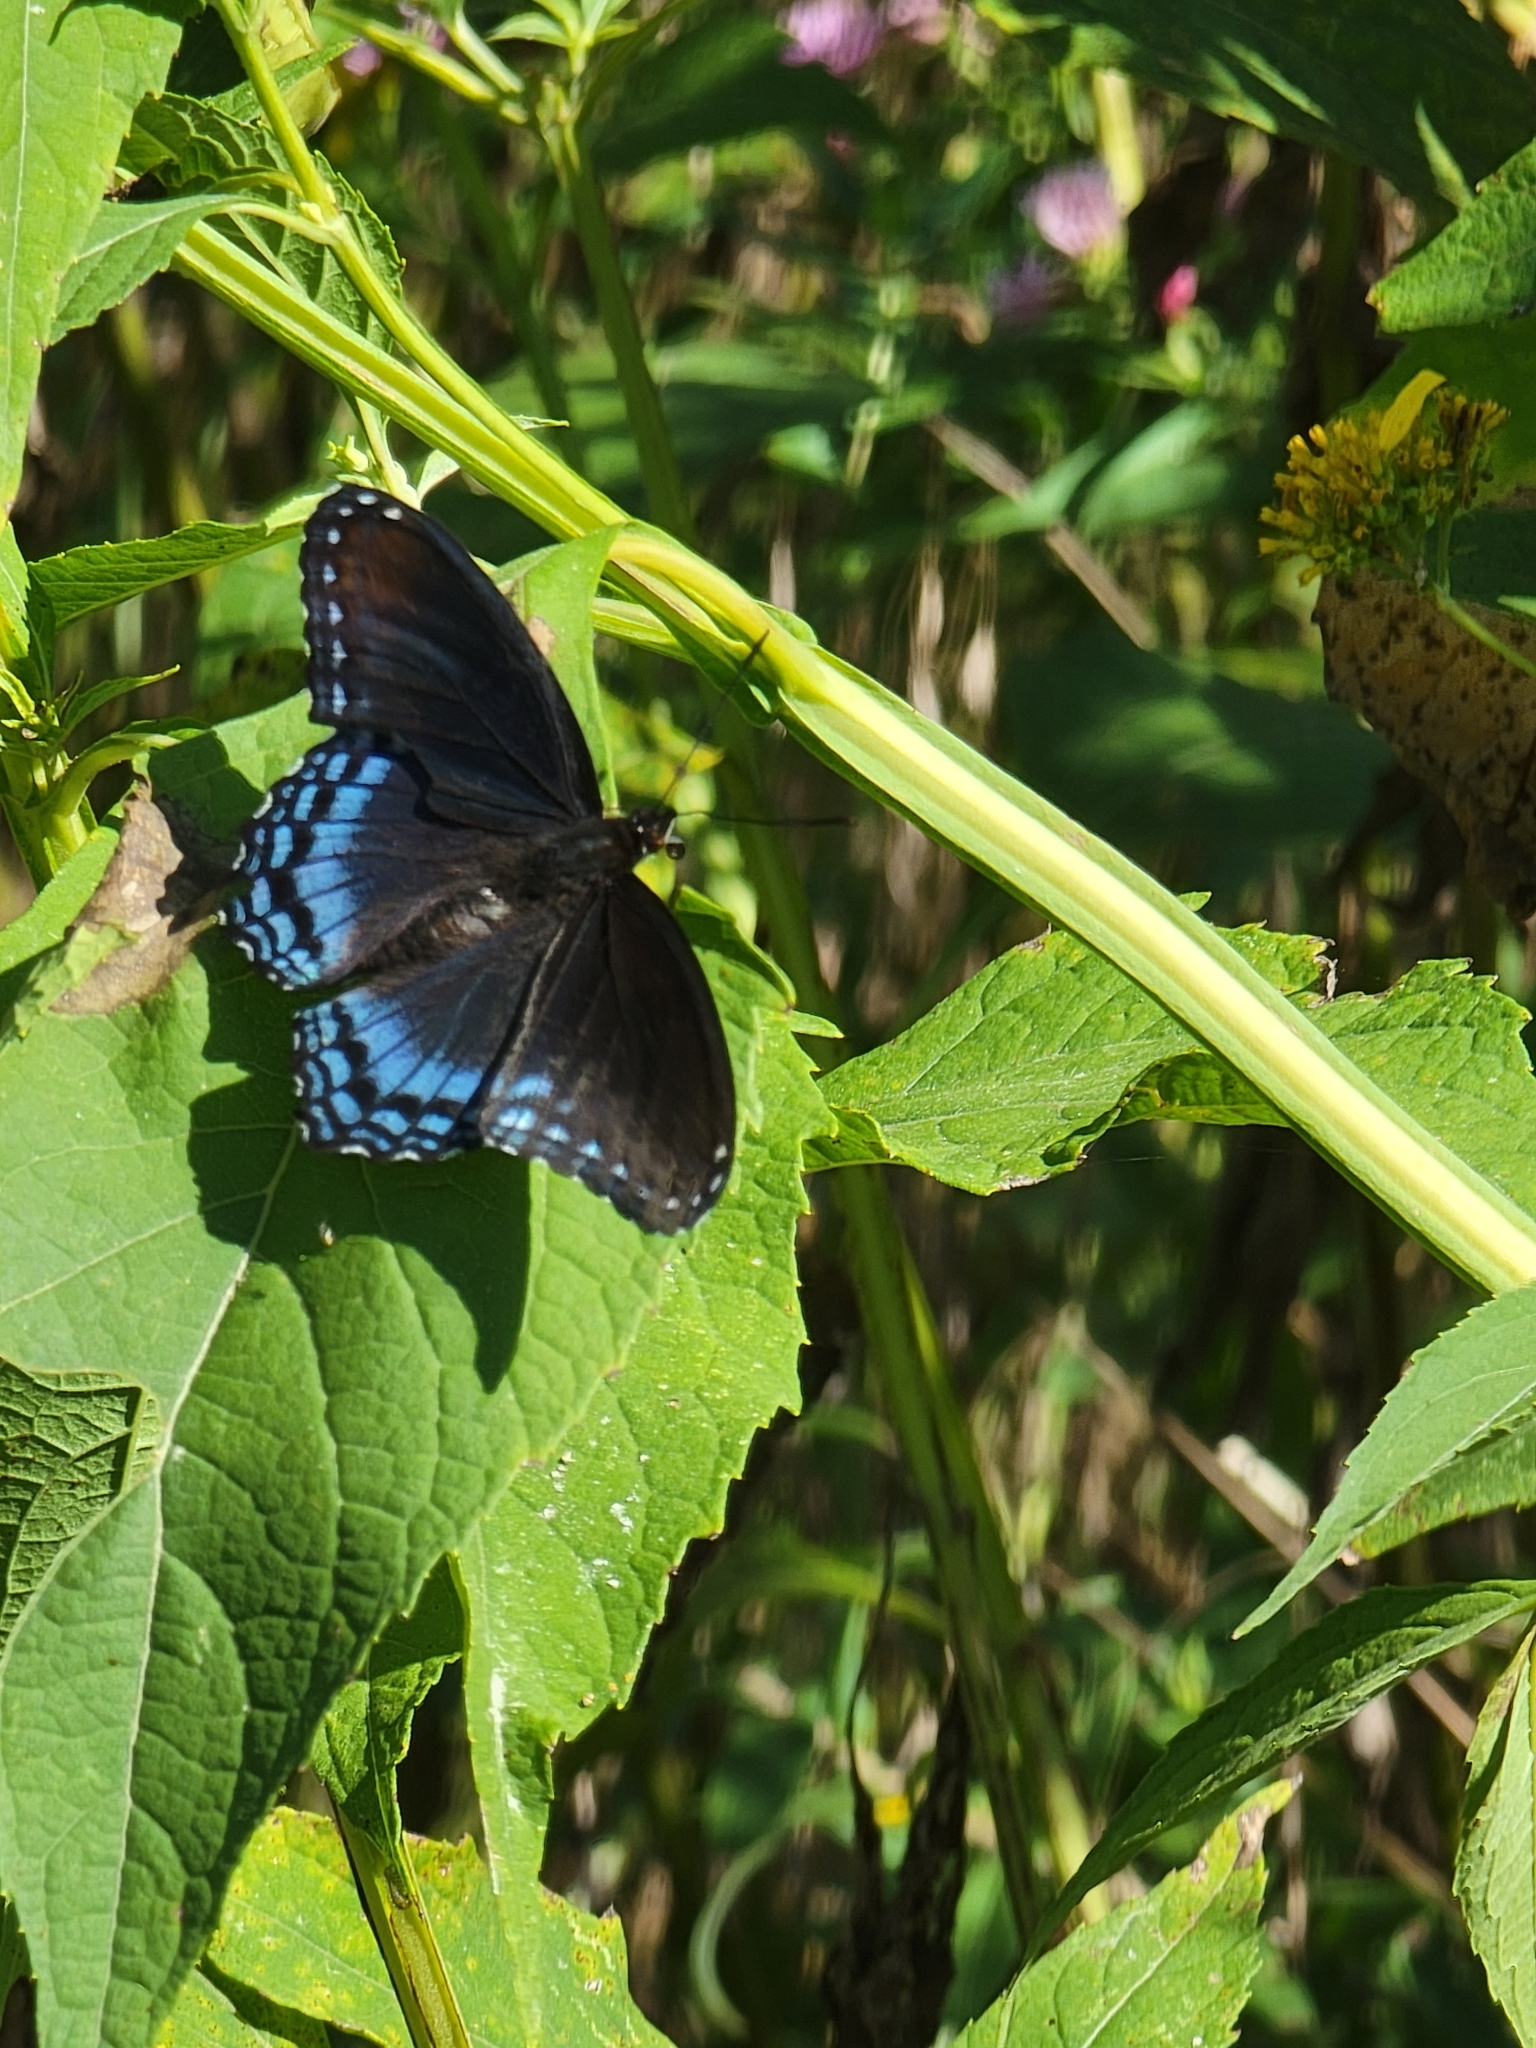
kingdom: Animalia
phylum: Arthropoda
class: Insecta
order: Lepidoptera
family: Nymphalidae
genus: Limenitis
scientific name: Limenitis astyanax
